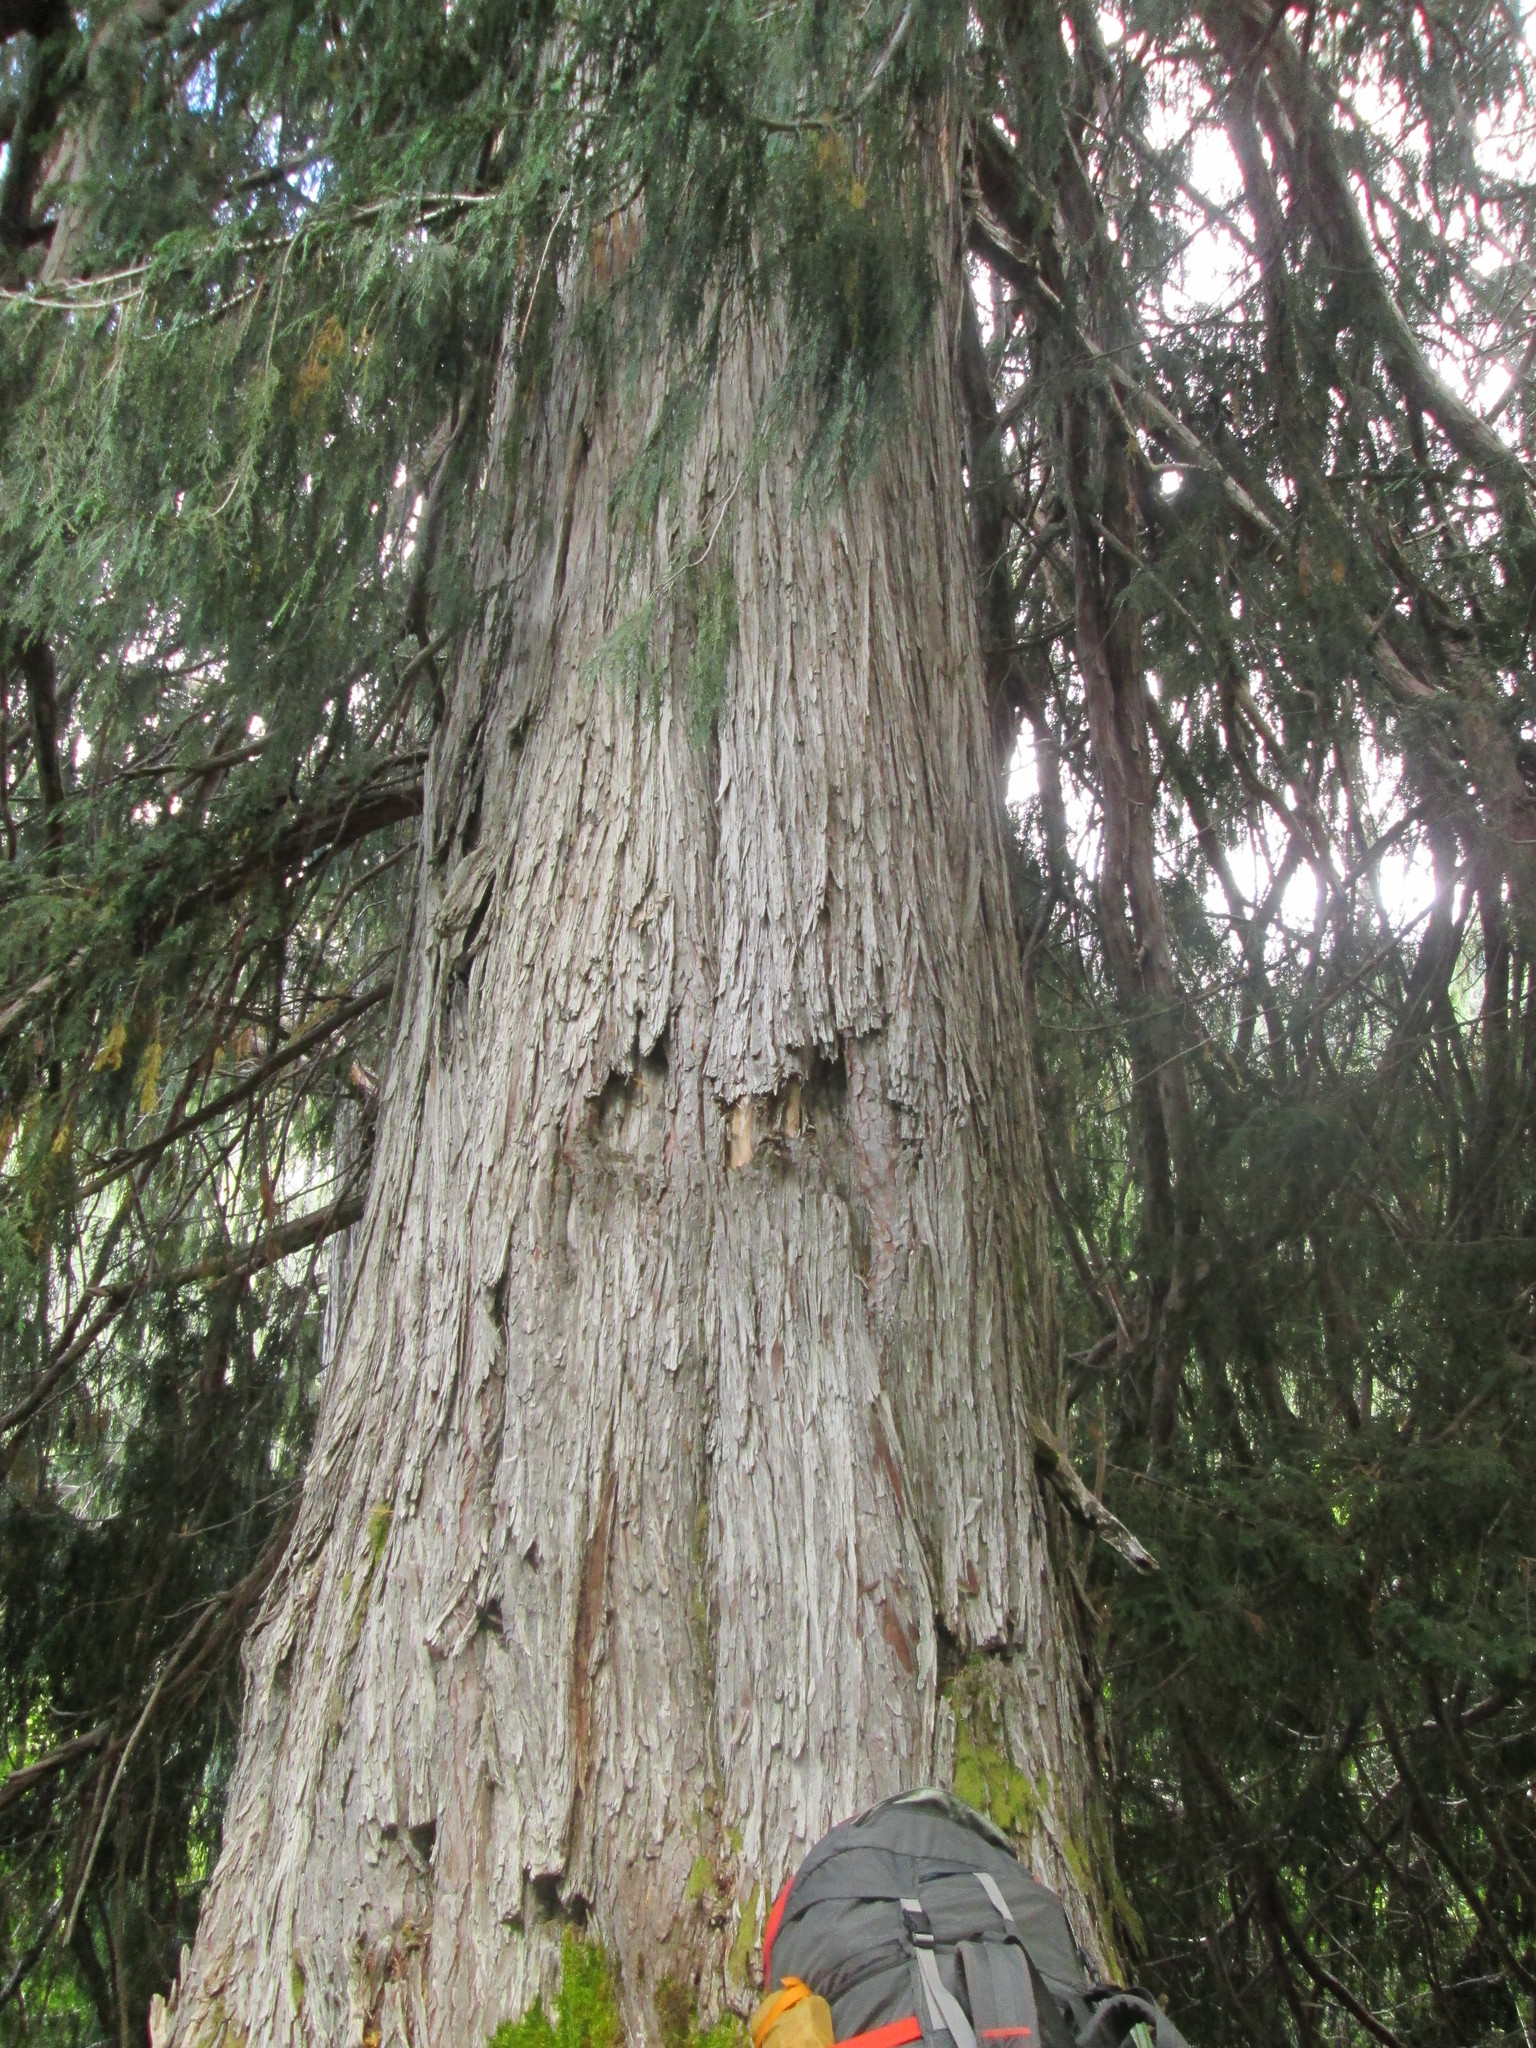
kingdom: Plantae
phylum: Tracheophyta
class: Pinopsida
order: Pinales
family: Cupressaceae
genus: Xanthocyparis
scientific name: Xanthocyparis nootkatensis
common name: Nootka cypress
